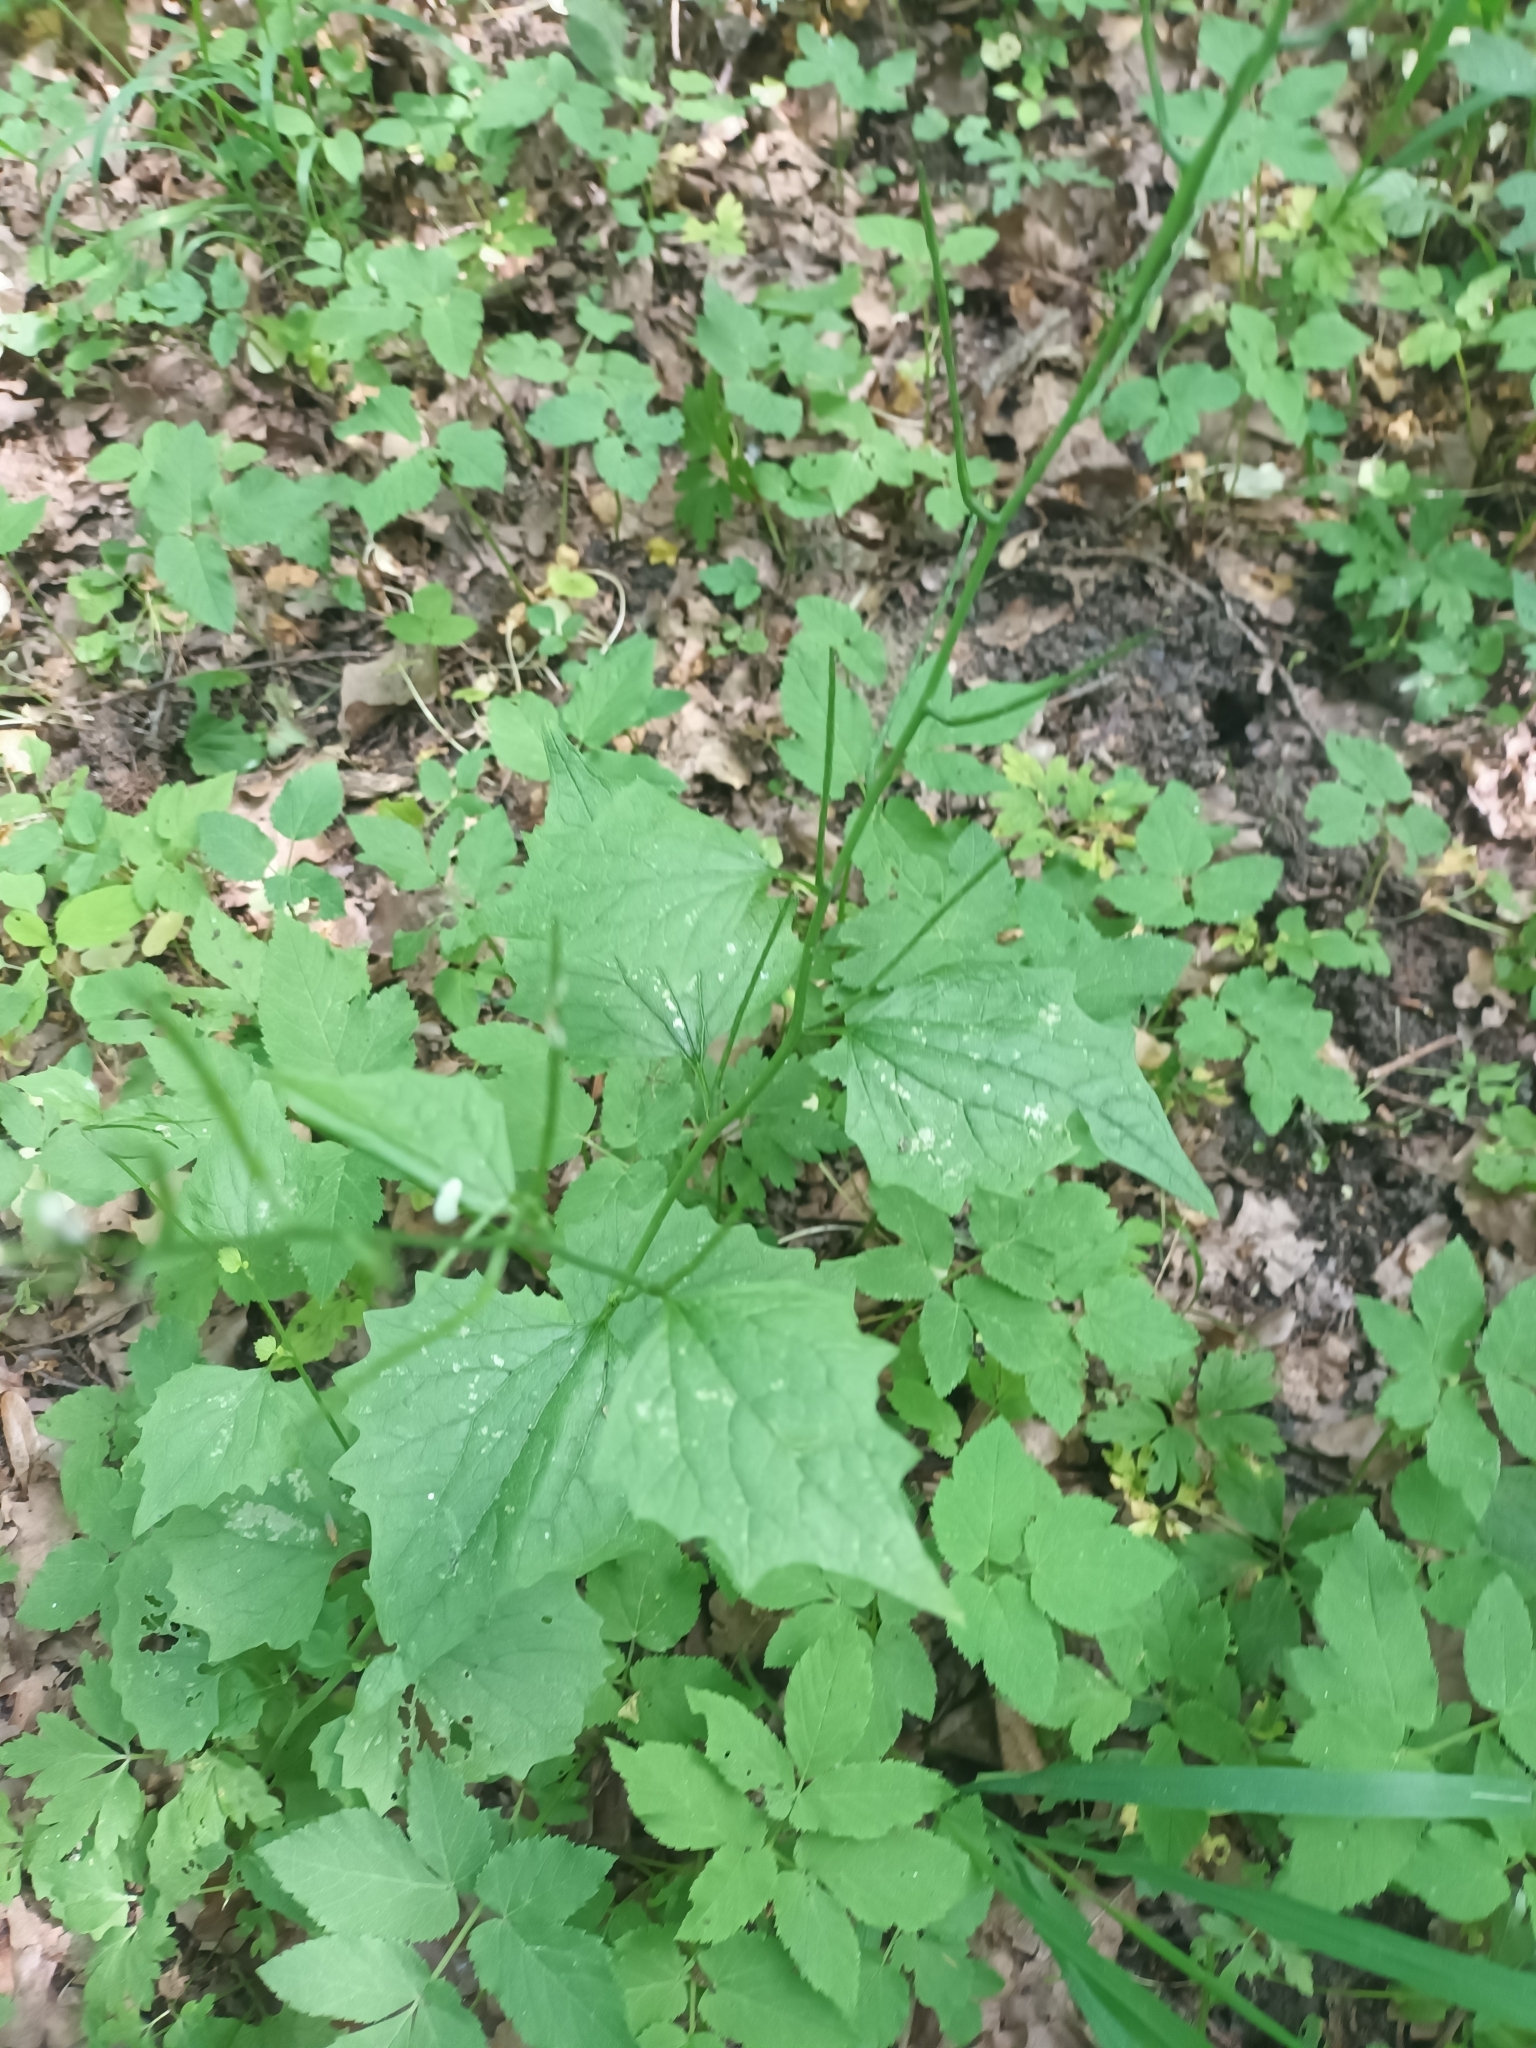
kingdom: Plantae
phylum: Tracheophyta
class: Magnoliopsida
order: Brassicales
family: Brassicaceae
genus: Alliaria
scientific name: Alliaria petiolata
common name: Garlic mustard
